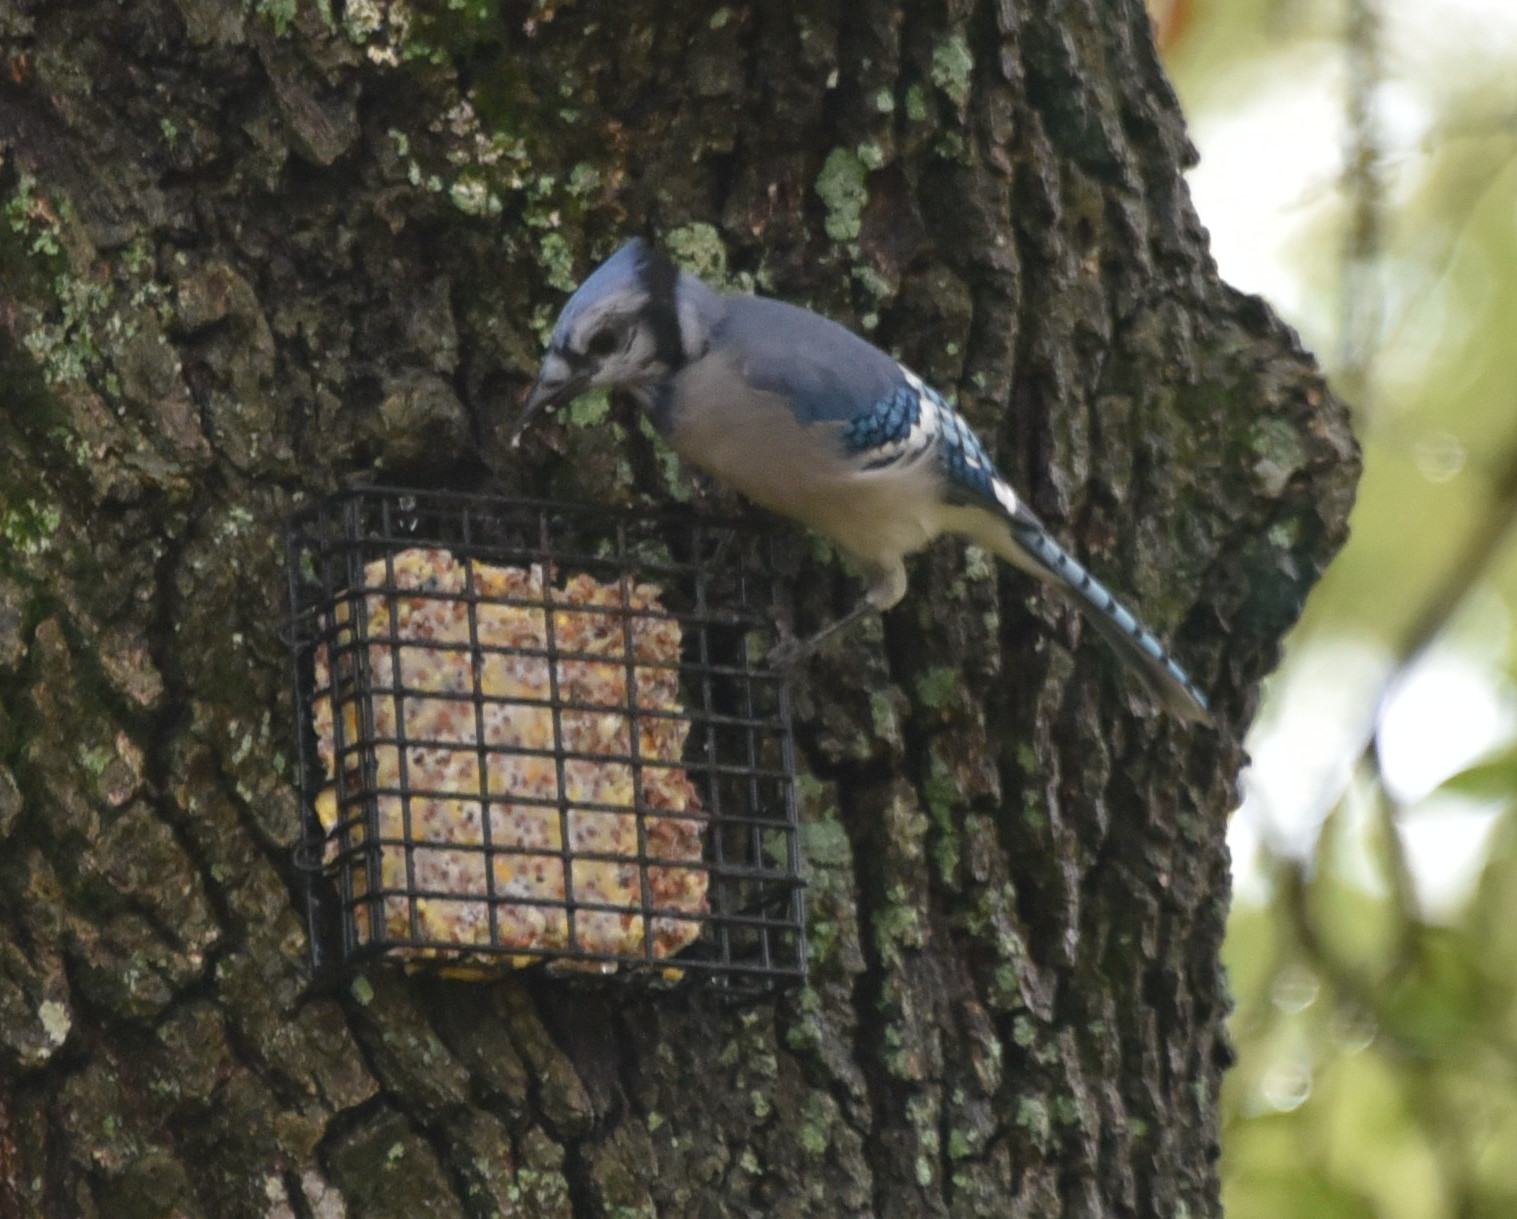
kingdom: Animalia
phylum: Chordata
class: Aves
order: Passeriformes
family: Corvidae
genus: Cyanocitta
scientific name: Cyanocitta cristata
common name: Blue jay
